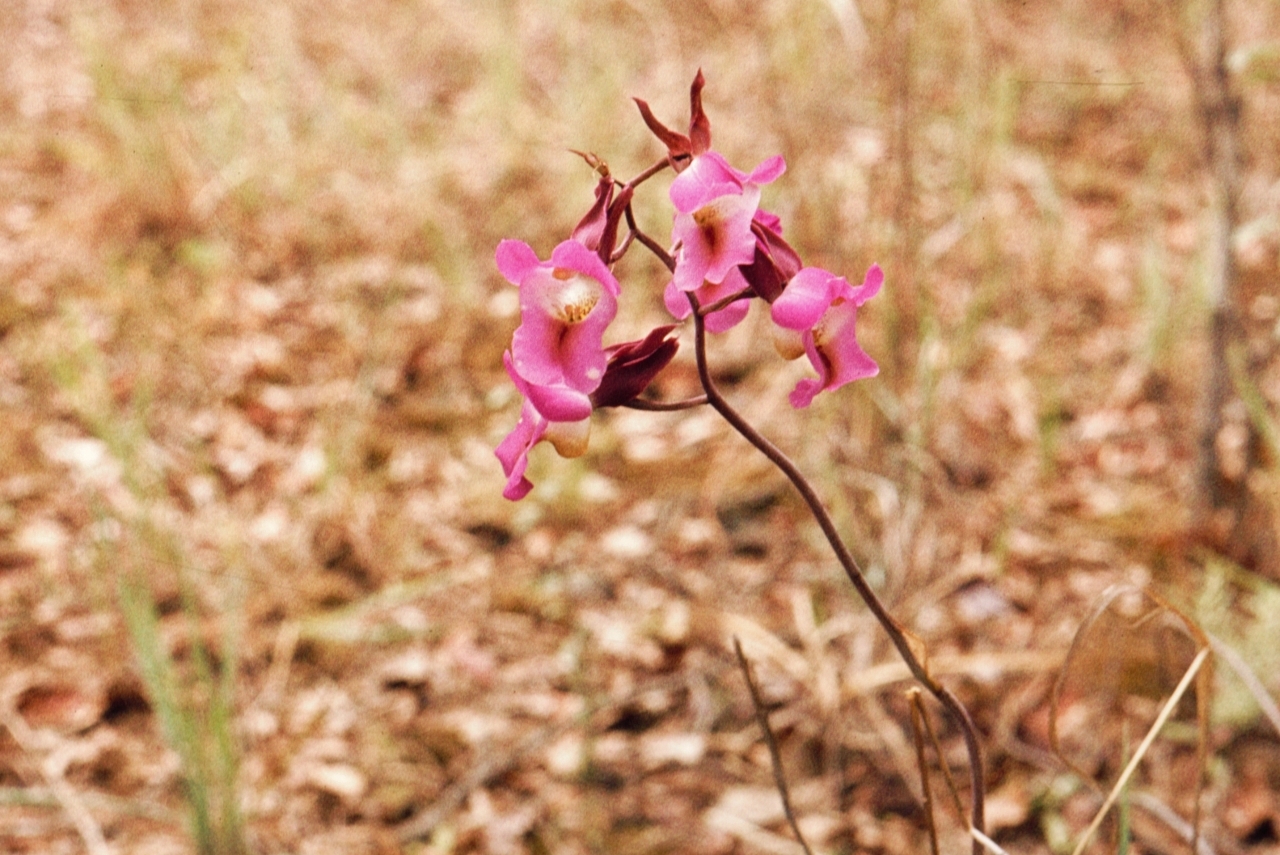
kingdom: Plantae
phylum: Tracheophyta
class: Liliopsida
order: Asparagales
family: Orchidaceae
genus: Eulophia
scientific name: Eulophia cucullata
